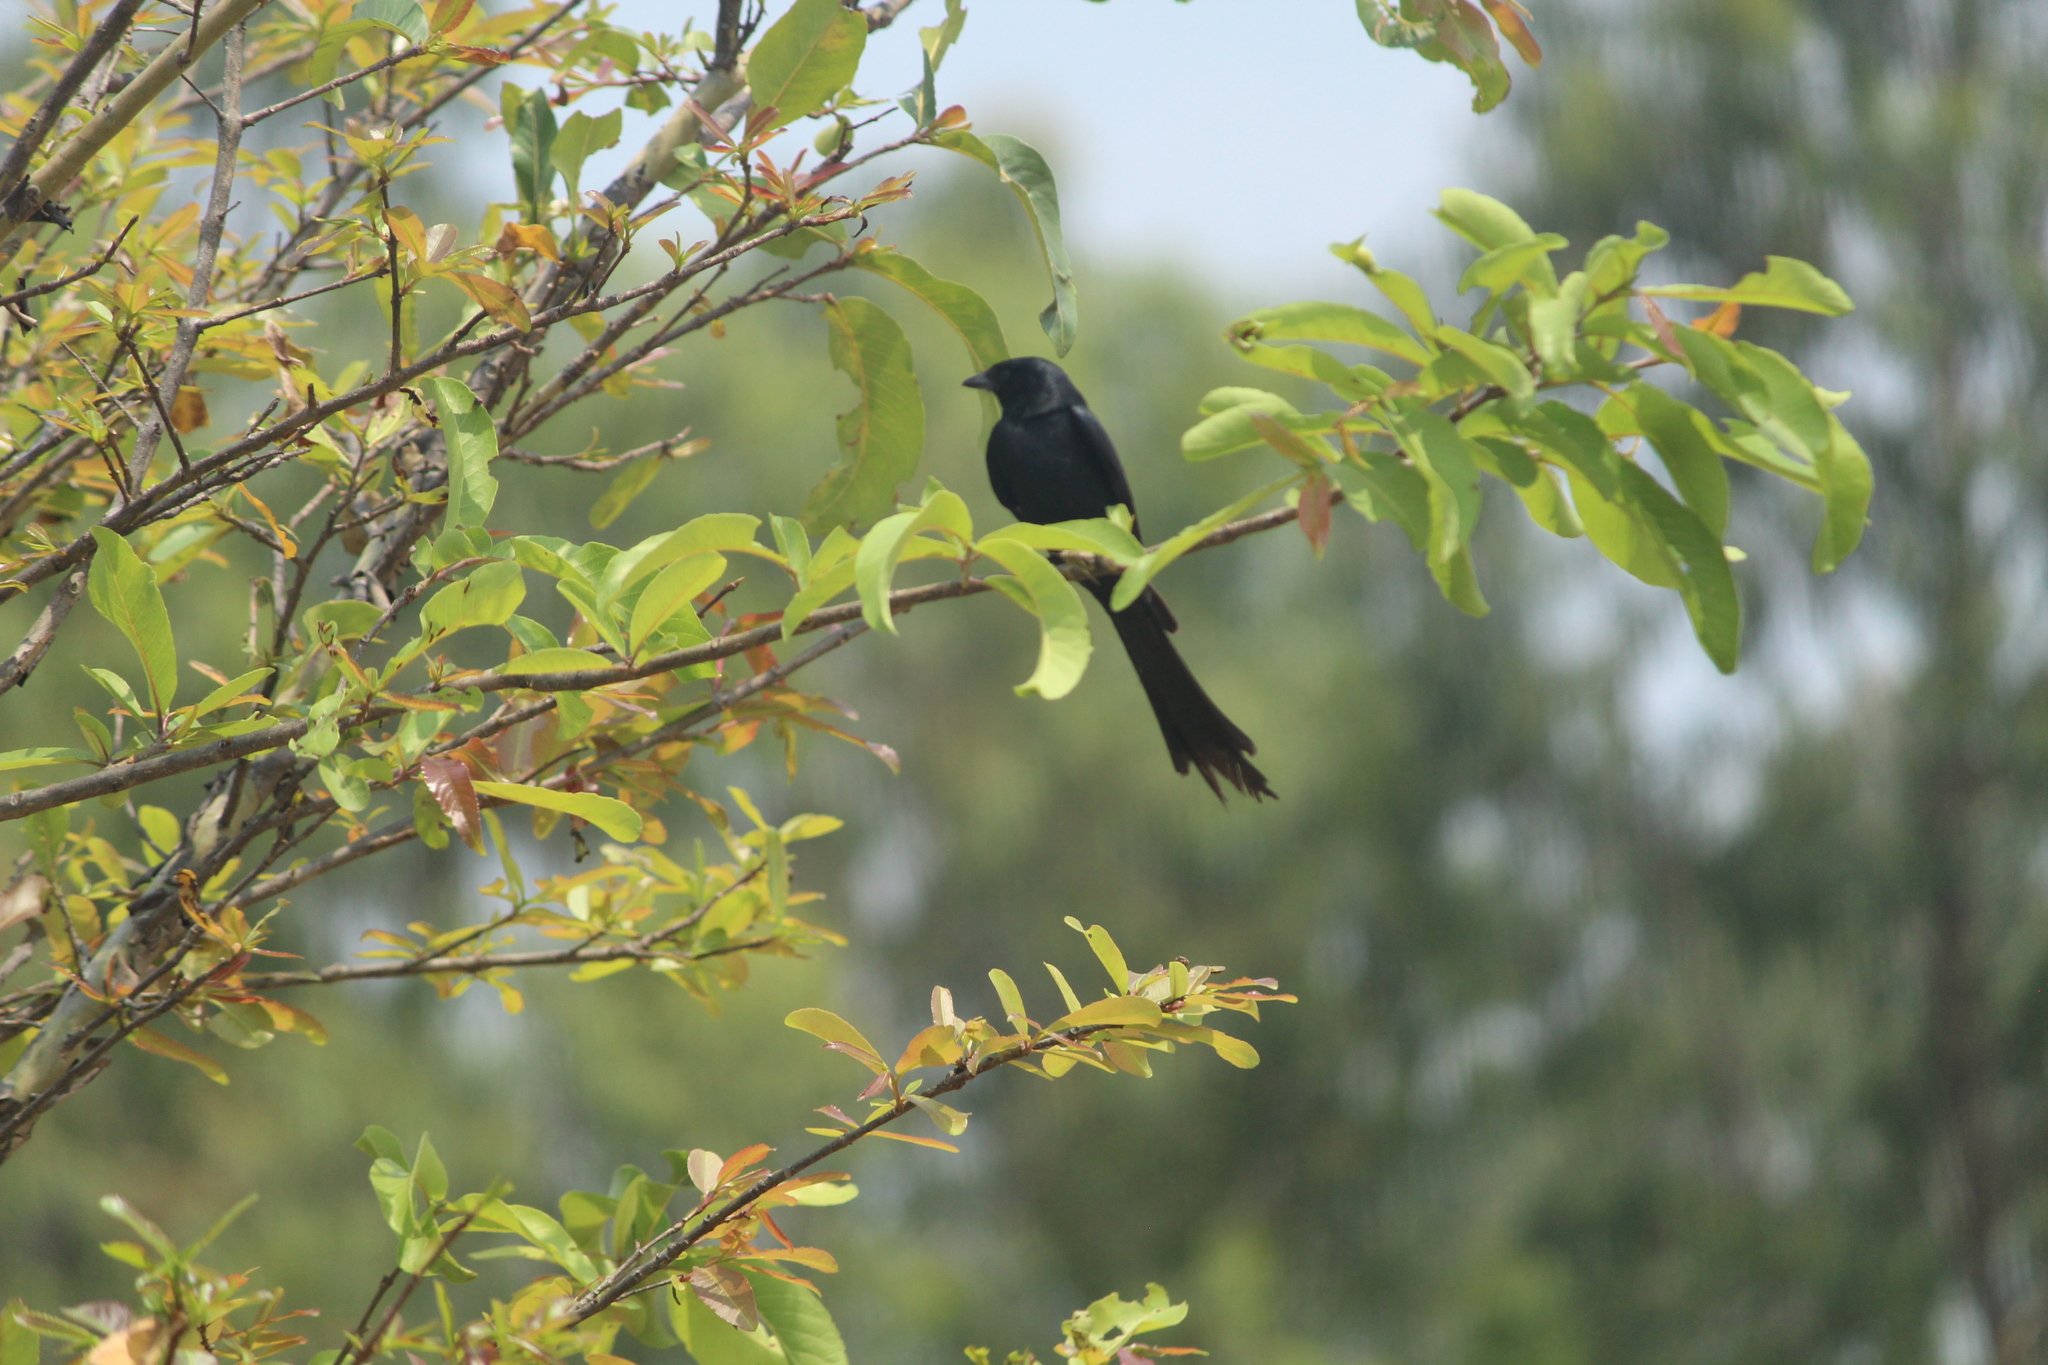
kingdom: Animalia
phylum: Chordata
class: Aves
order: Passeriformes
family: Dicruridae
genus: Dicrurus
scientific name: Dicrurus macrocercus
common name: Black drongo
